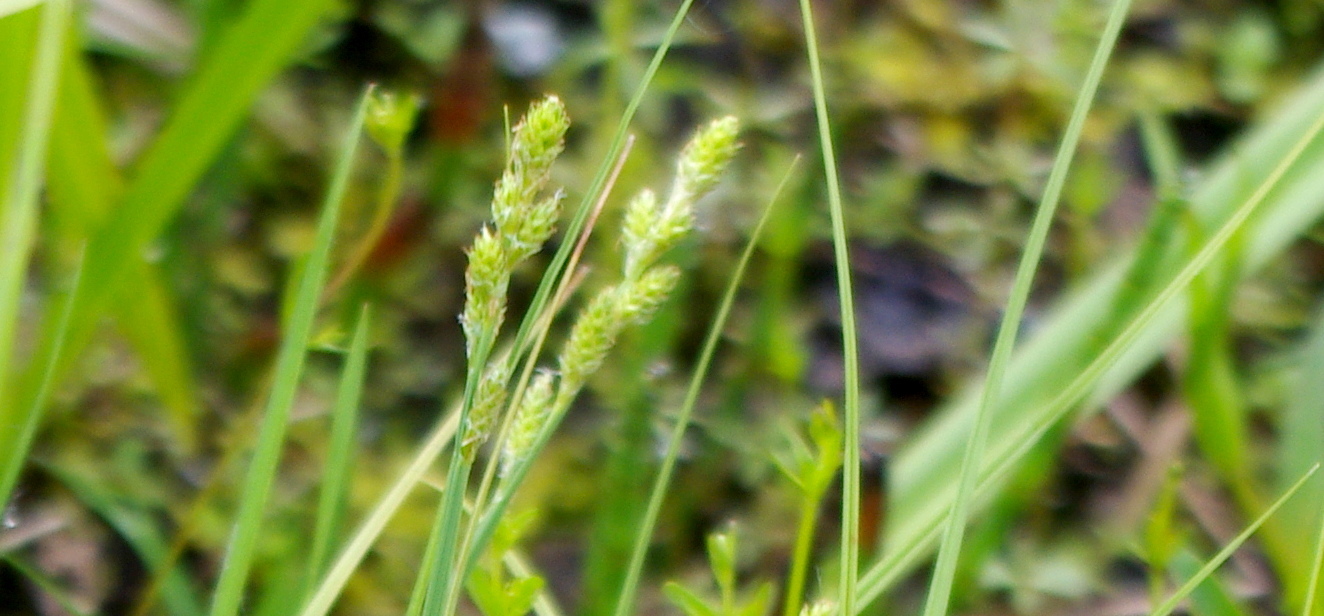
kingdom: Plantae
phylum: Tracheophyta
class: Liliopsida
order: Poales
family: Cyperaceae
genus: Carex
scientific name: Carex canescens
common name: White sedge
